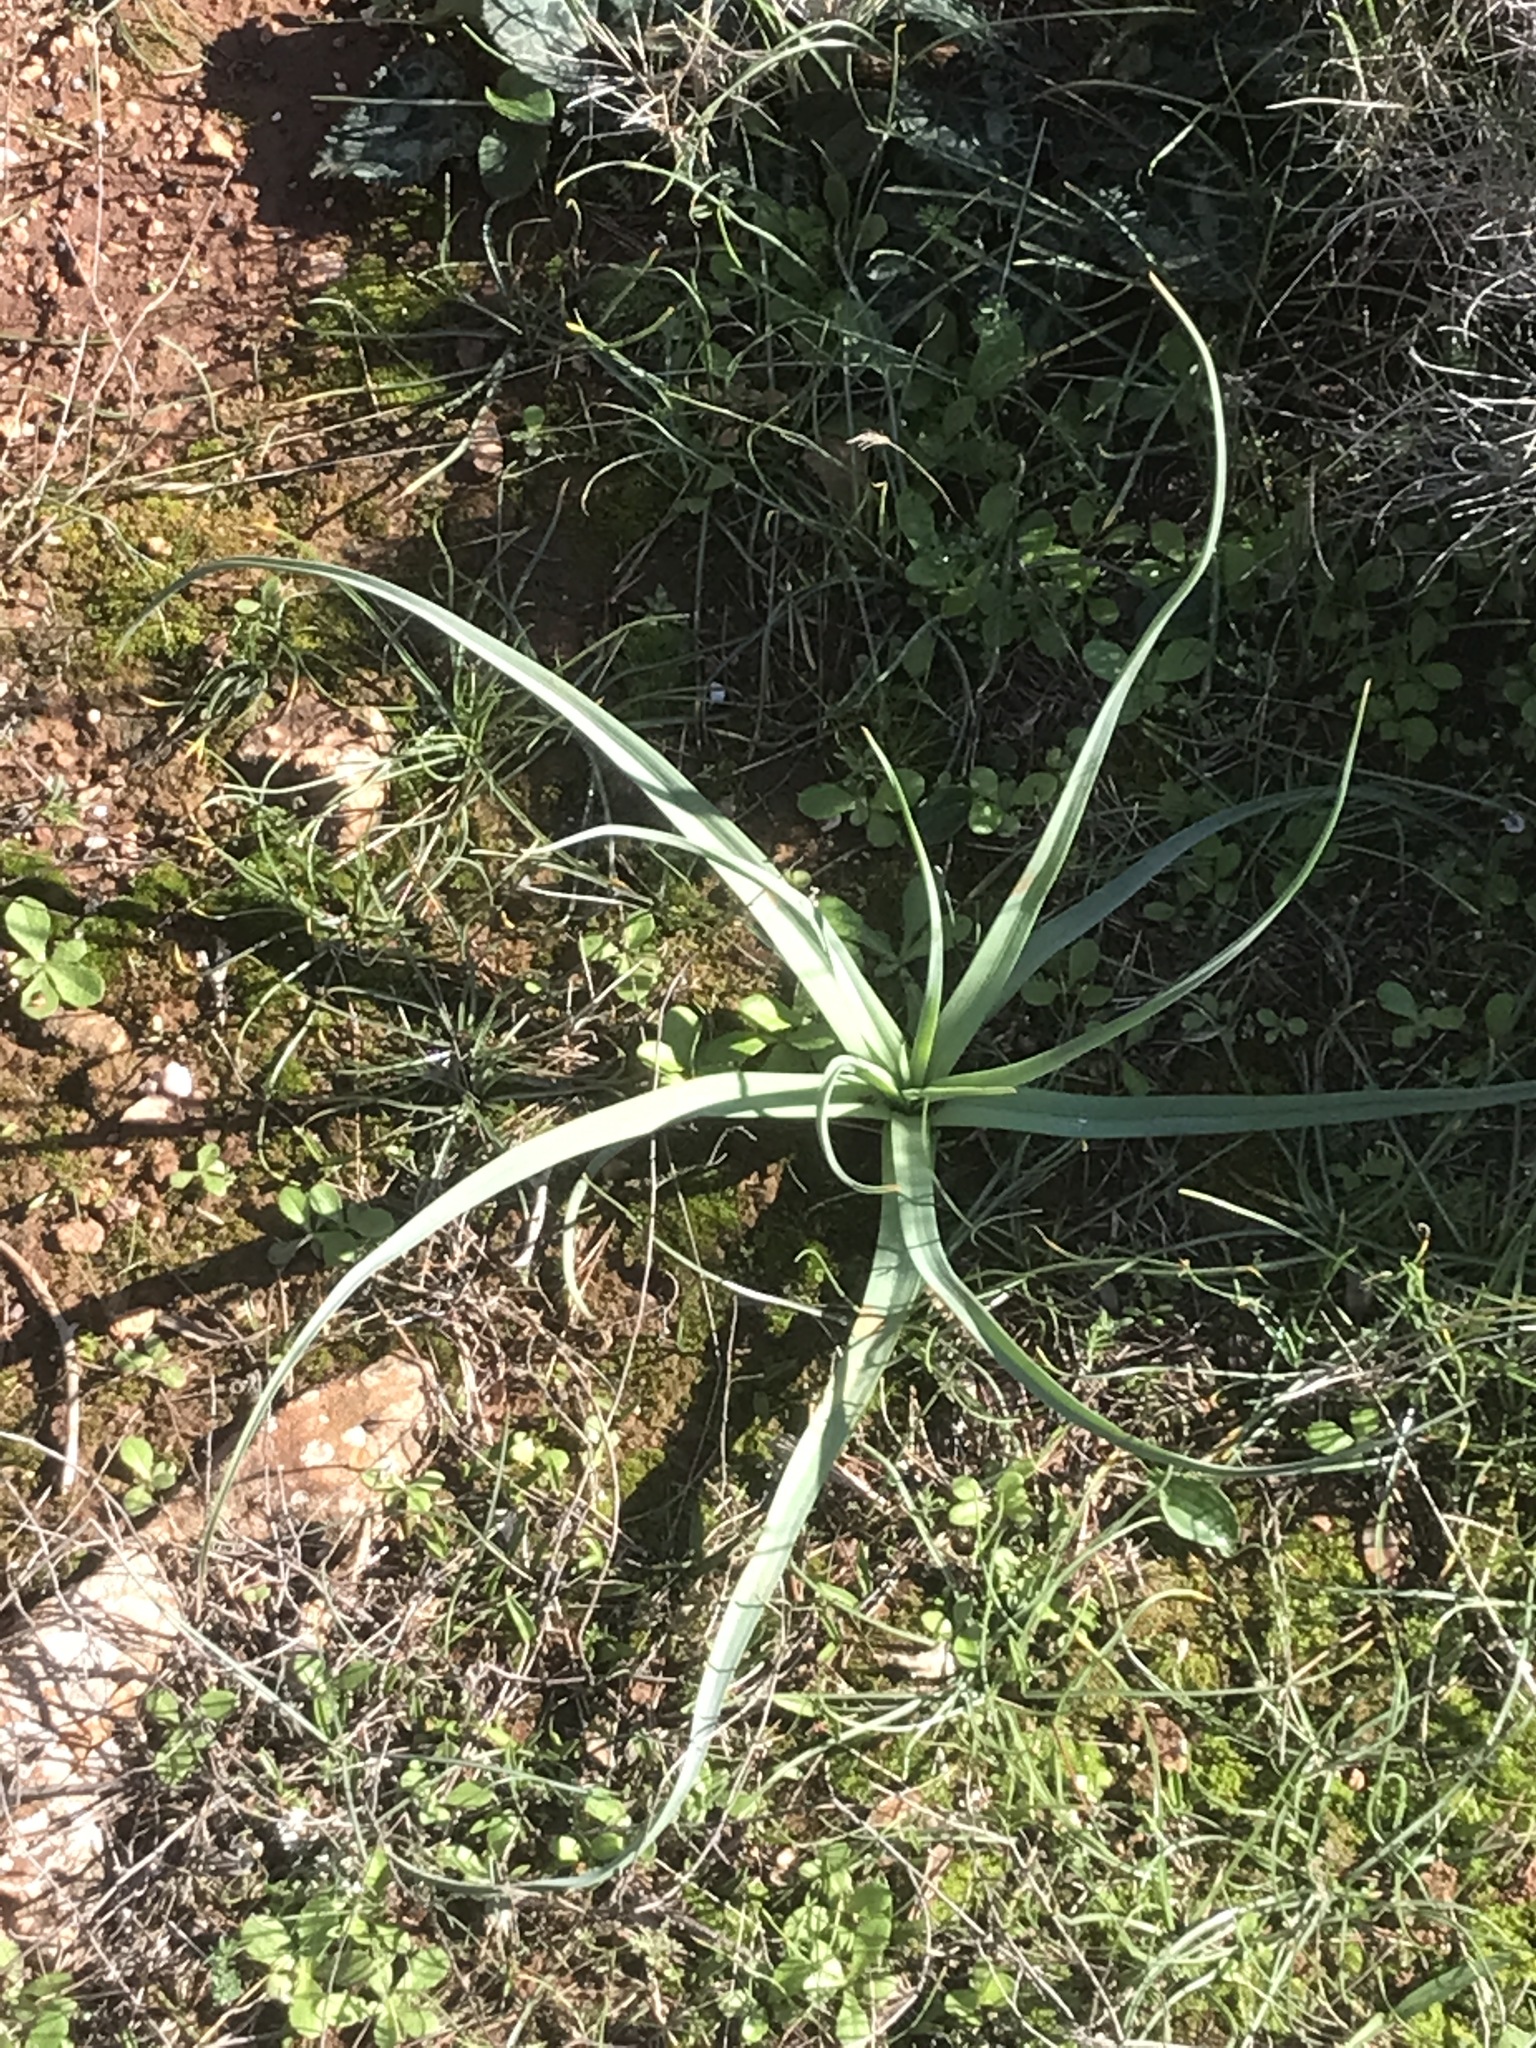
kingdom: Plantae
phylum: Tracheophyta
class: Liliopsida
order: Asparagales
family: Asphodelaceae
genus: Asphodelus
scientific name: Asphodelus ramosus
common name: Silverrod
